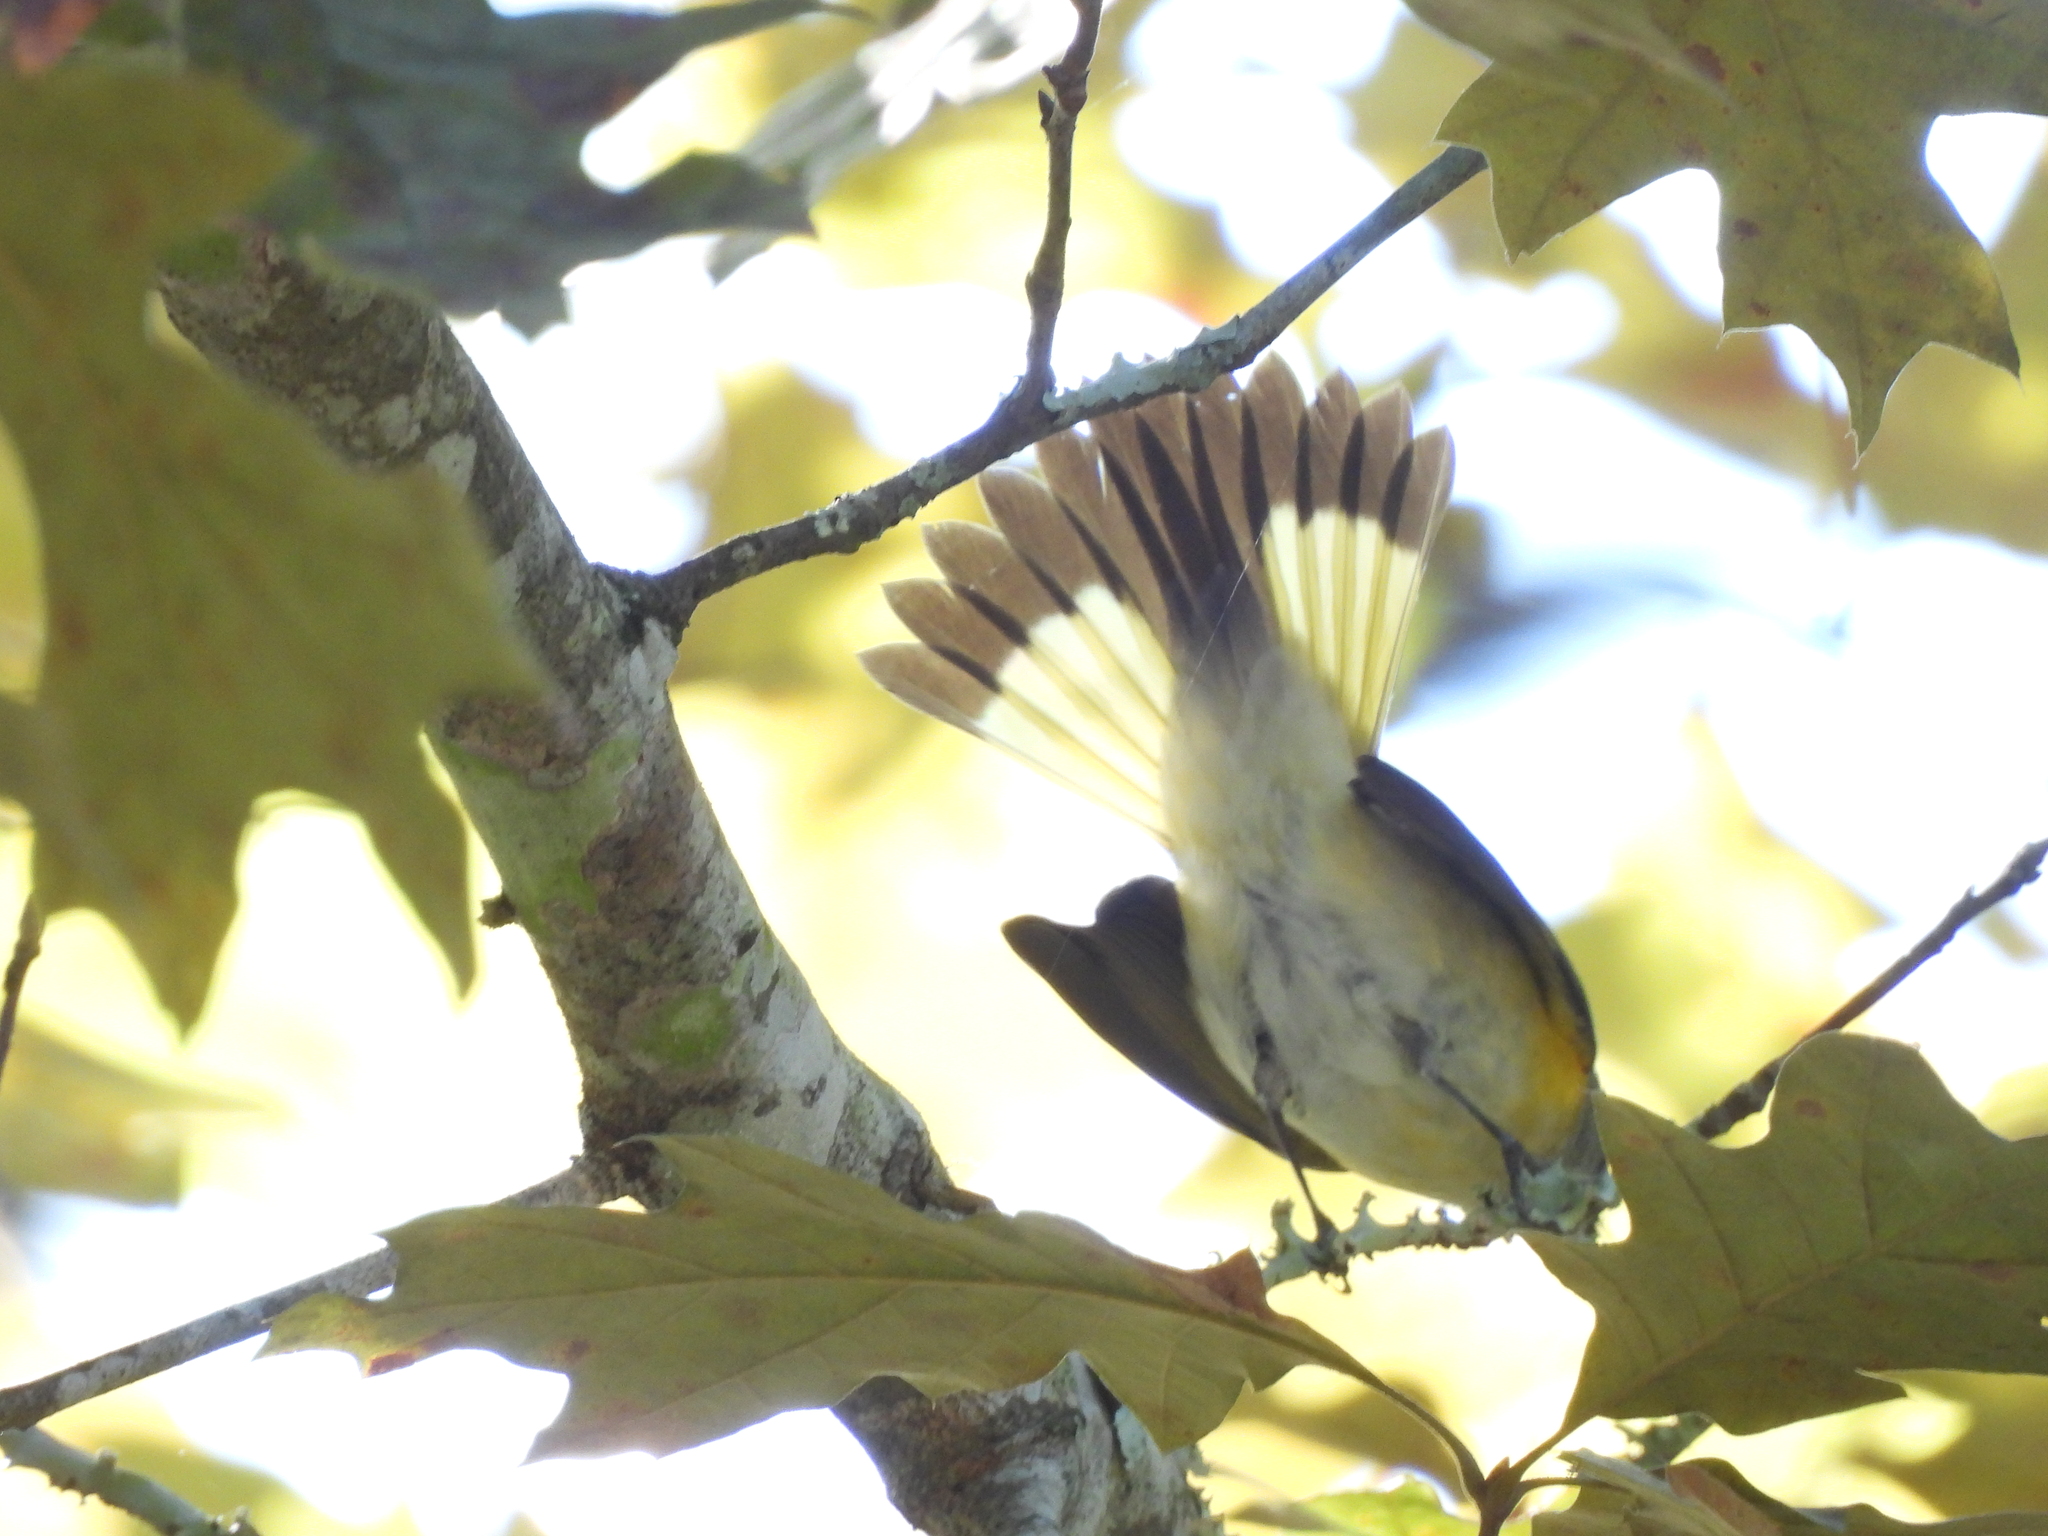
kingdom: Animalia
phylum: Chordata
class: Aves
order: Passeriformes
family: Parulidae
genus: Setophaga
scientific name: Setophaga ruticilla
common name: American redstart
